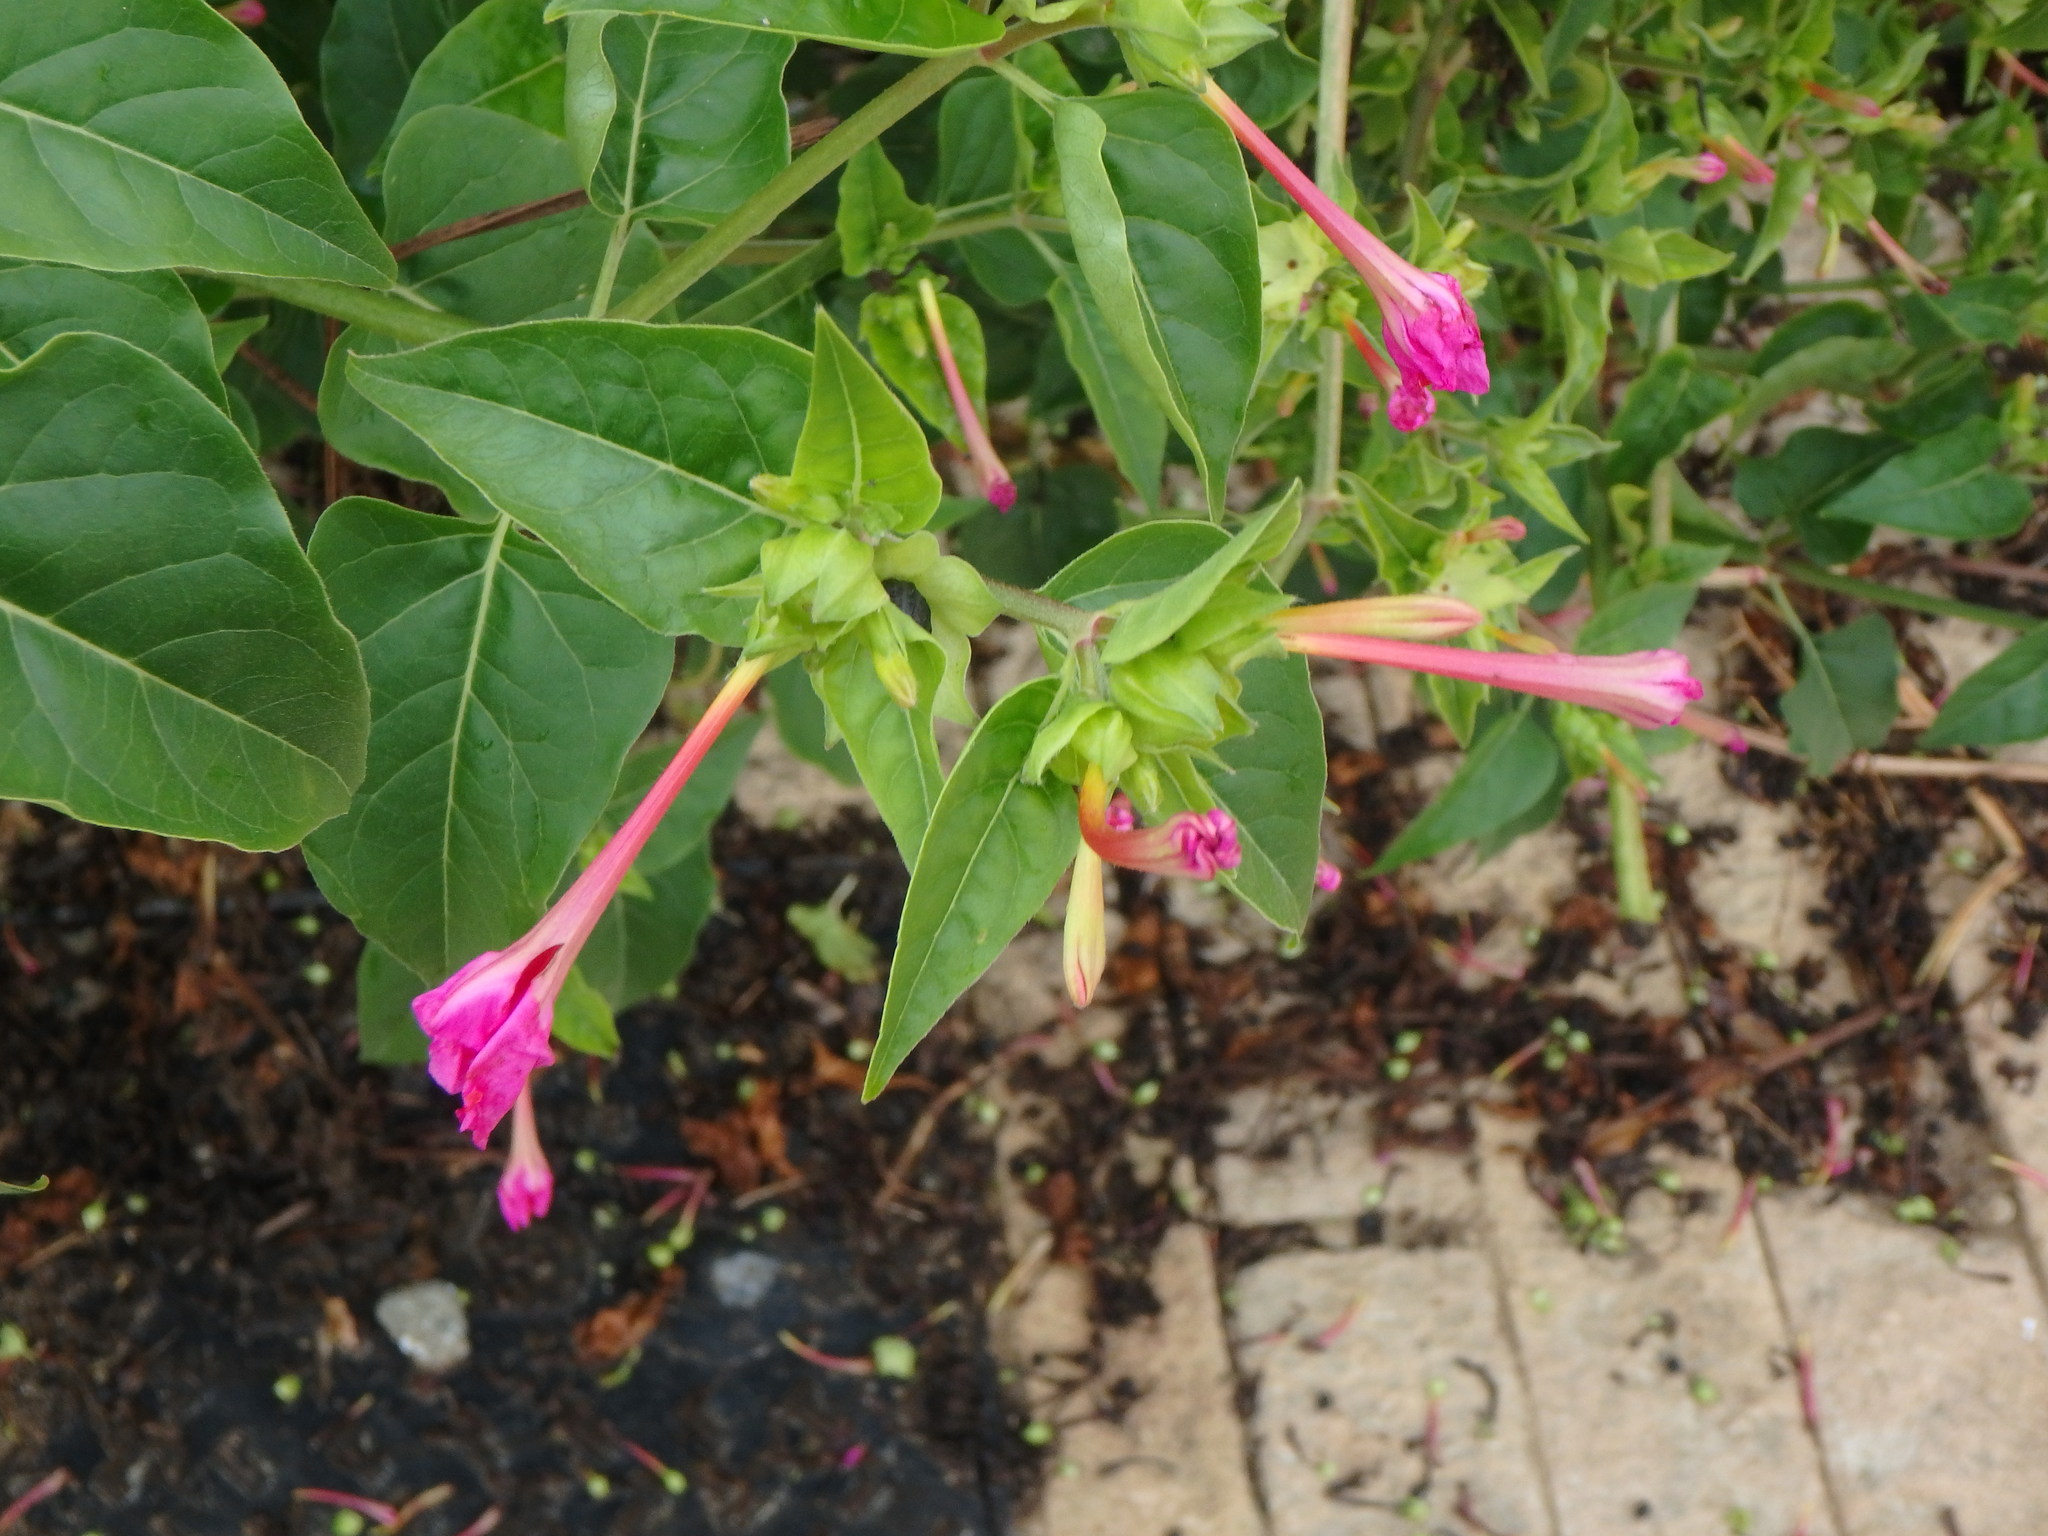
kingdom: Plantae
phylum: Tracheophyta
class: Magnoliopsida
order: Caryophyllales
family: Nyctaginaceae
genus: Mirabilis
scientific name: Mirabilis jalapa
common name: Marvel-of-peru
